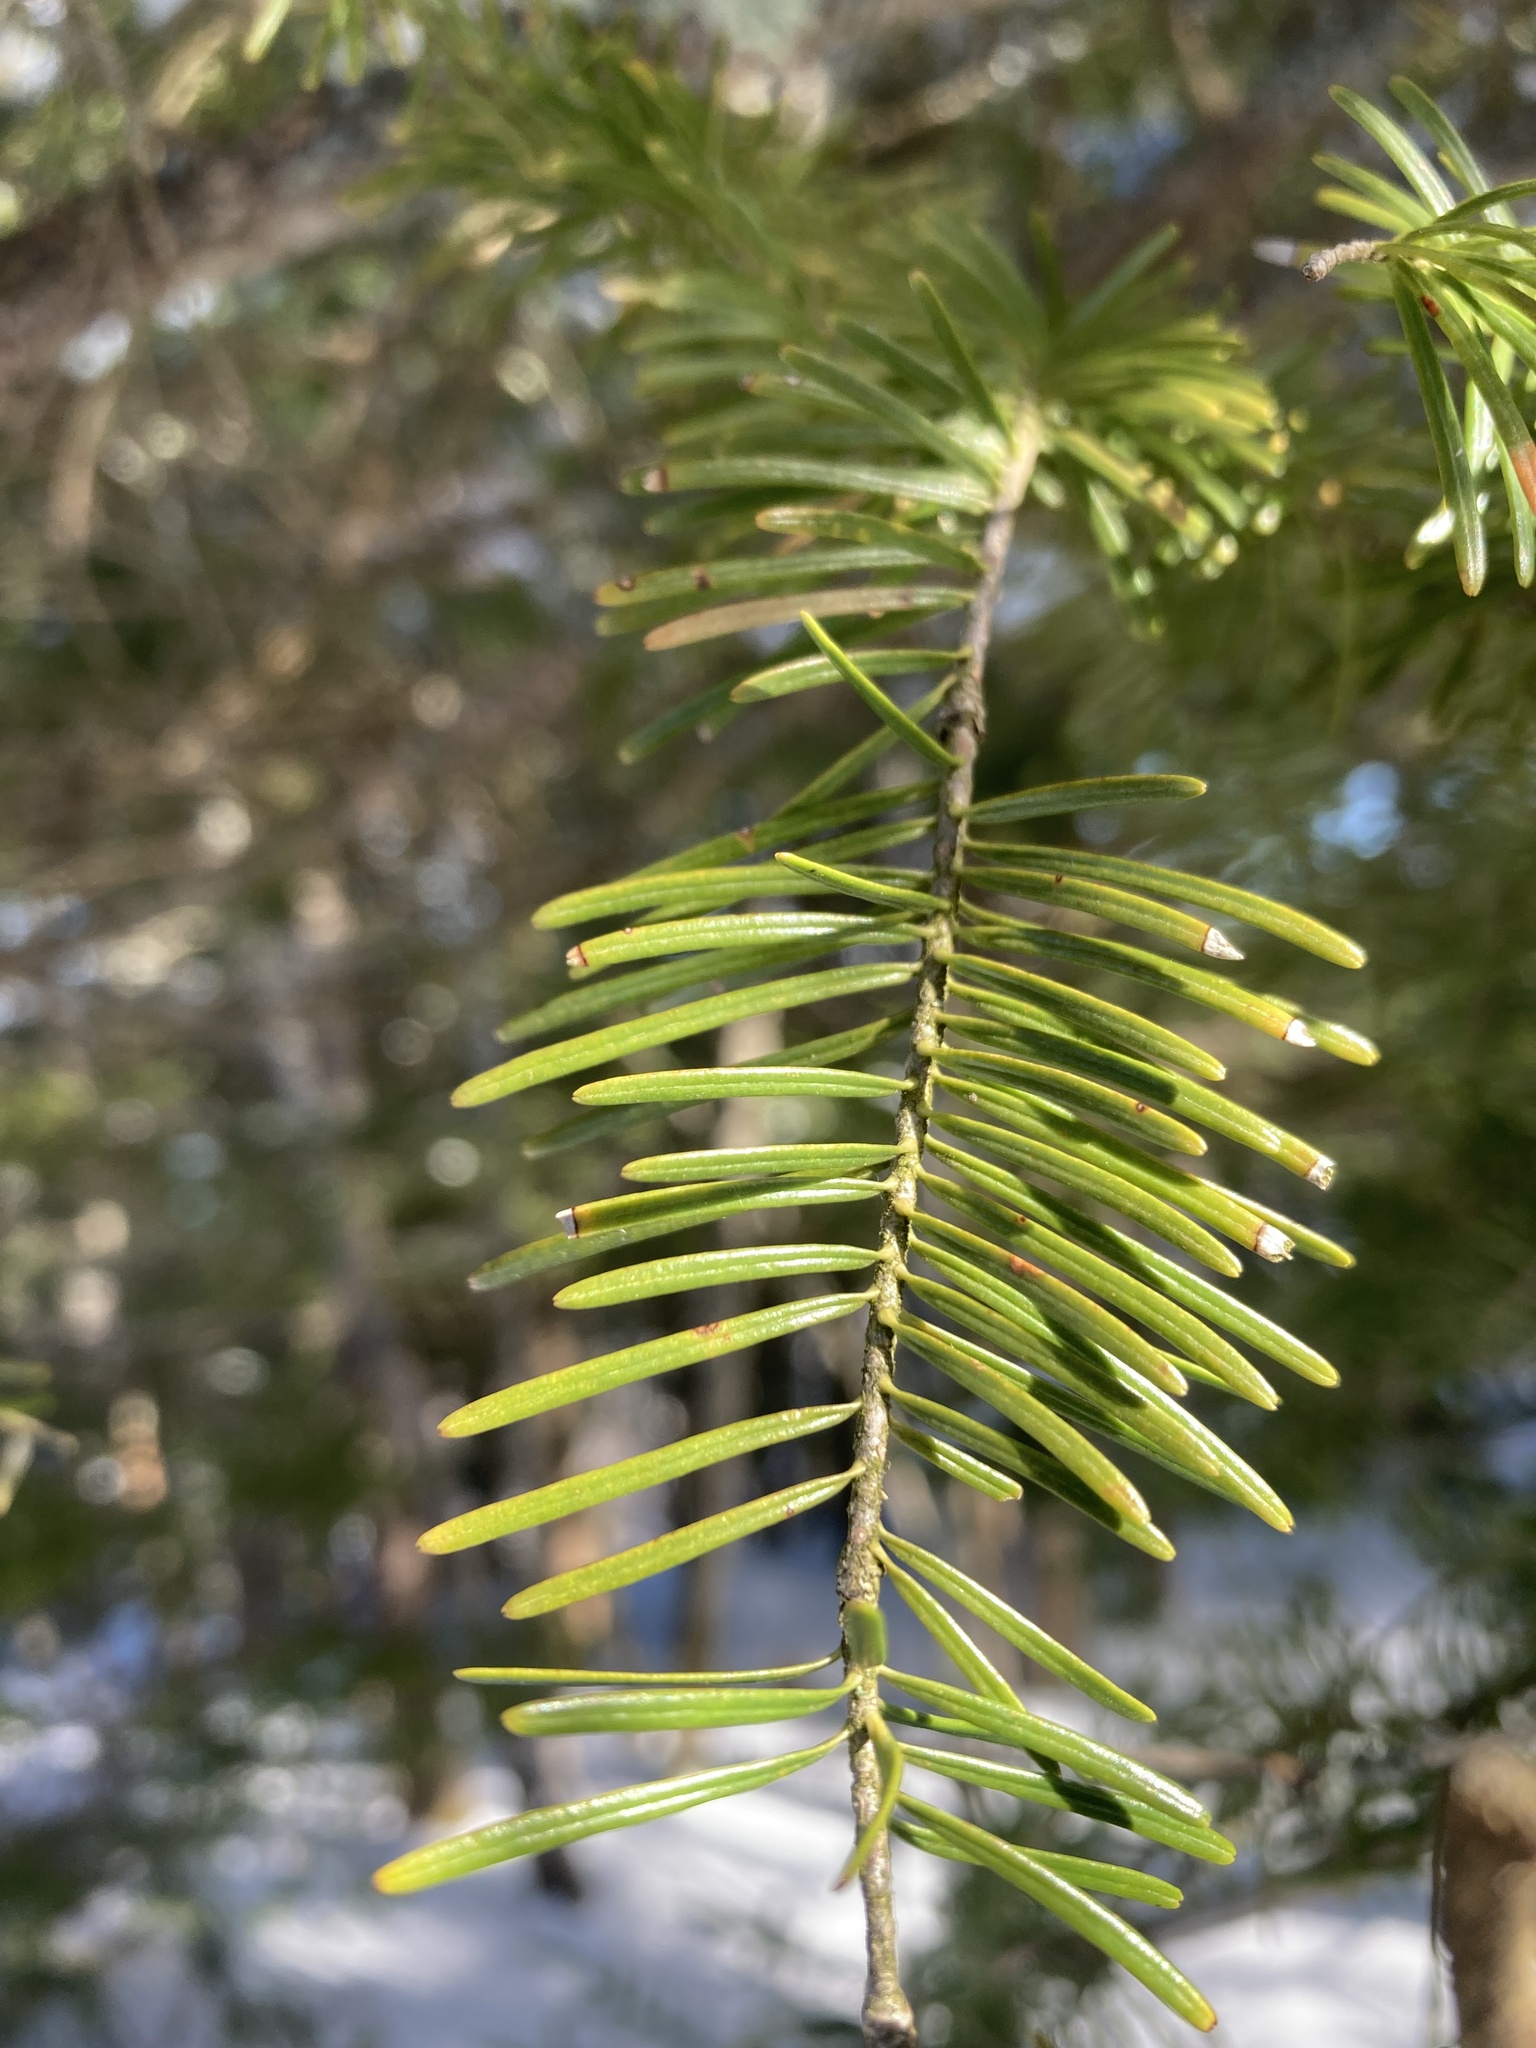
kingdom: Plantae
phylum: Tracheophyta
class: Pinopsida
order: Pinales
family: Pinaceae
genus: Abies
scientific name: Abies balsamea
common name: Balsam fir
